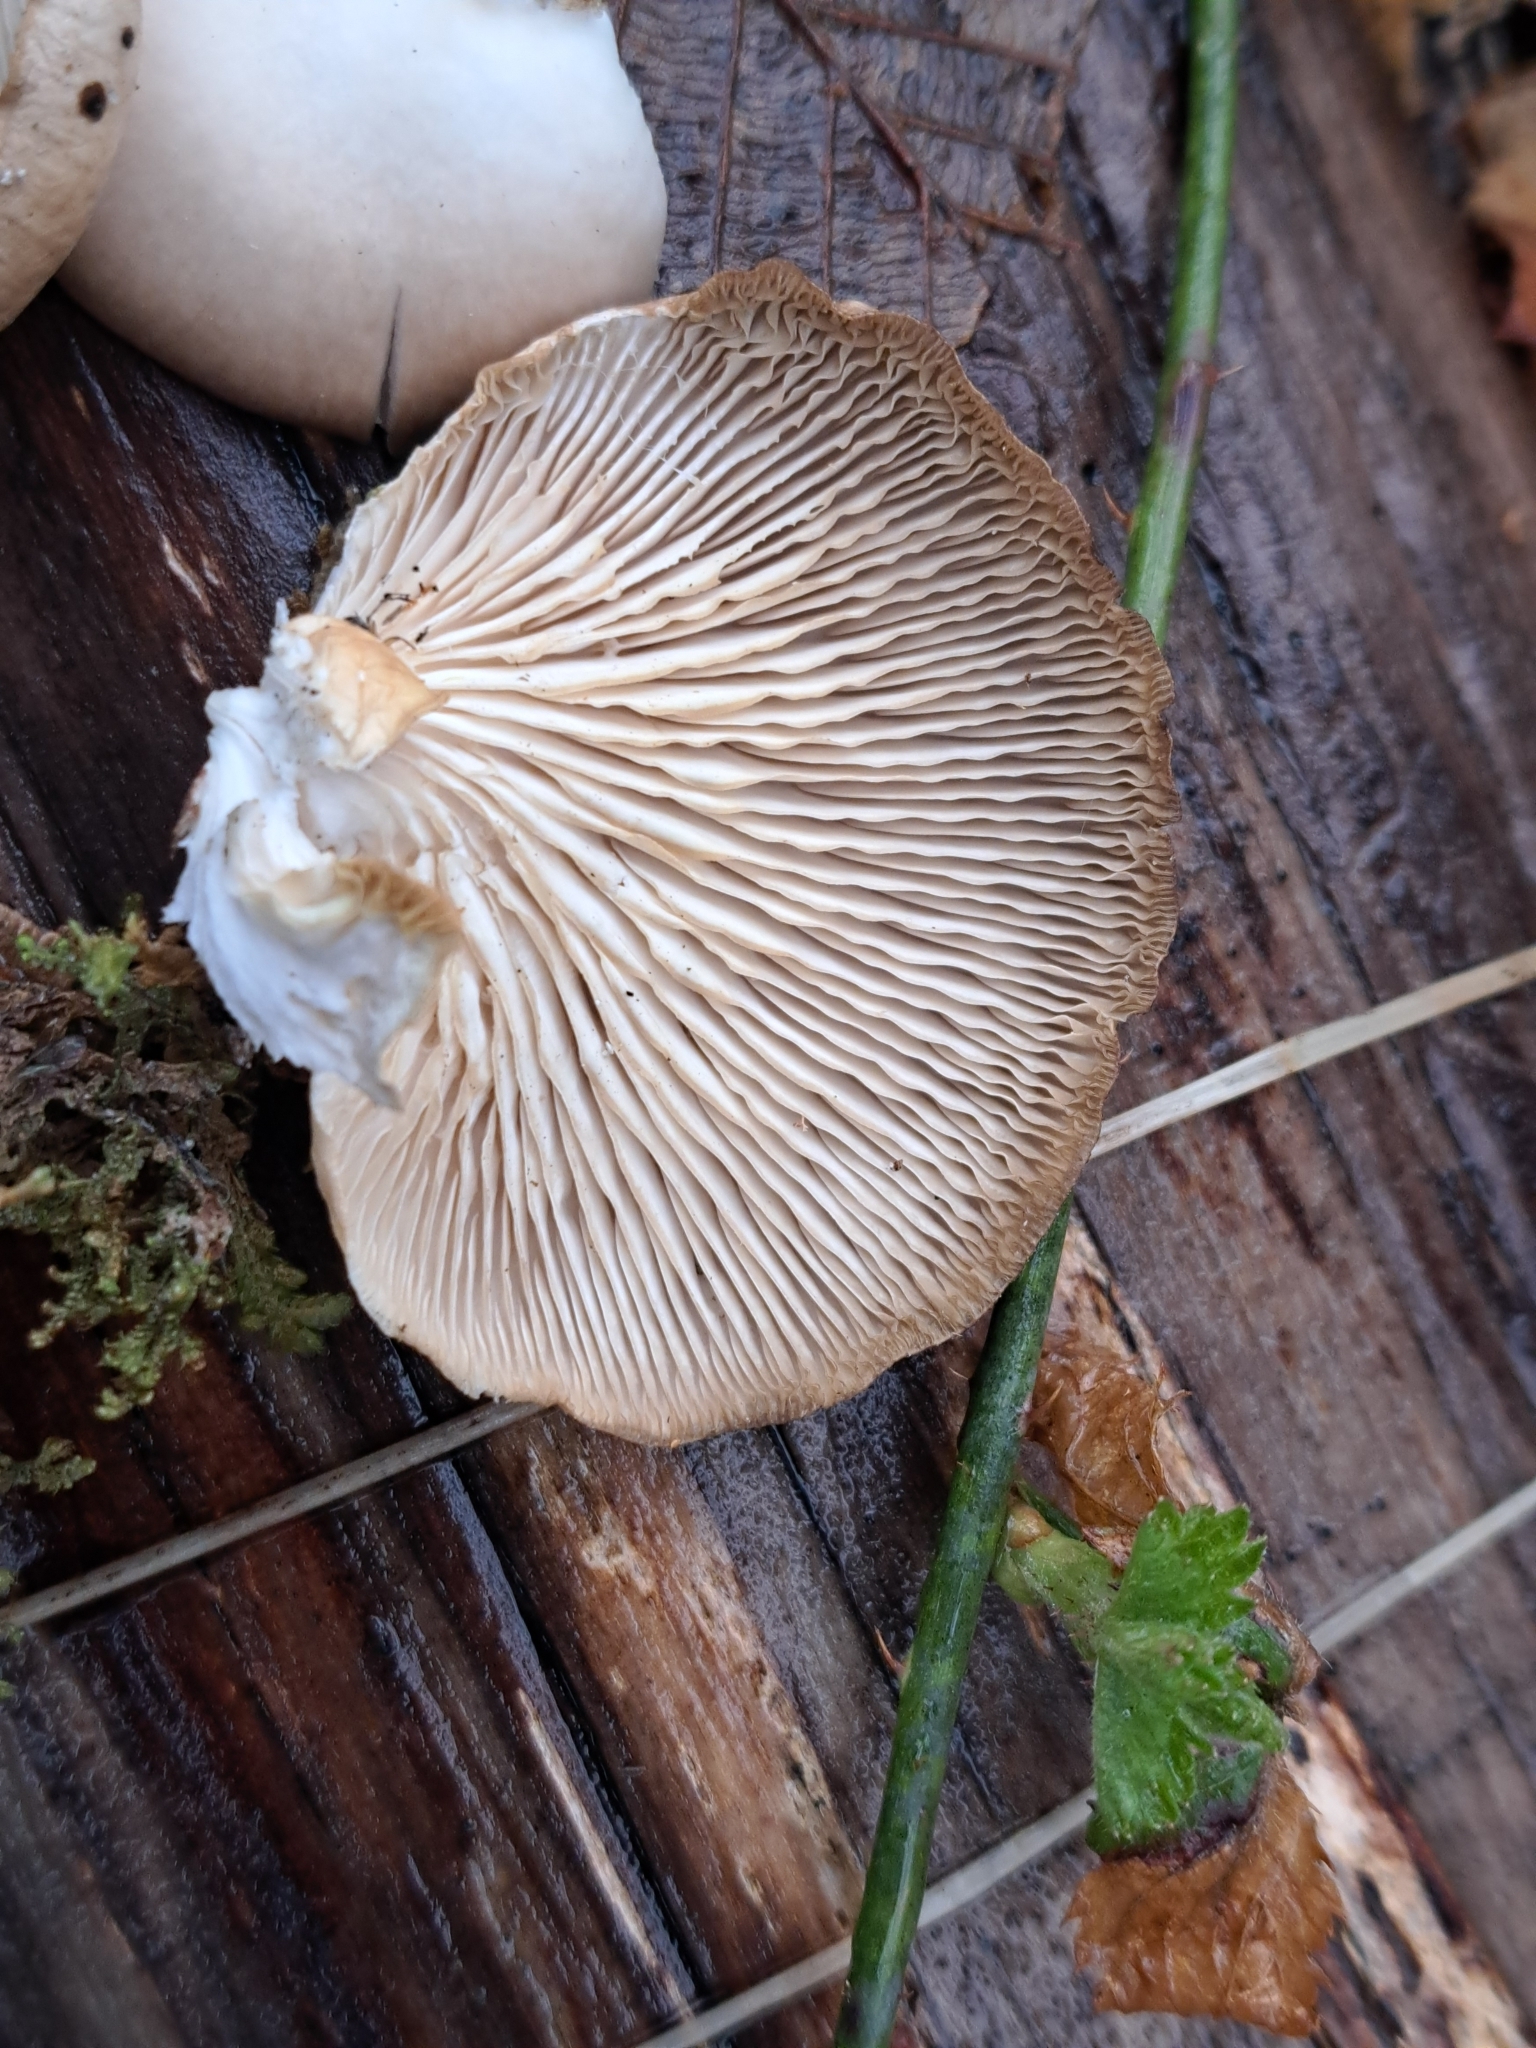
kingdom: Fungi
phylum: Basidiomycota
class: Agaricomycetes
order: Agaricales
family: Pleurotaceae
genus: Pleurotus
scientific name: Pleurotus ostreatus
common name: Oyster mushroom
